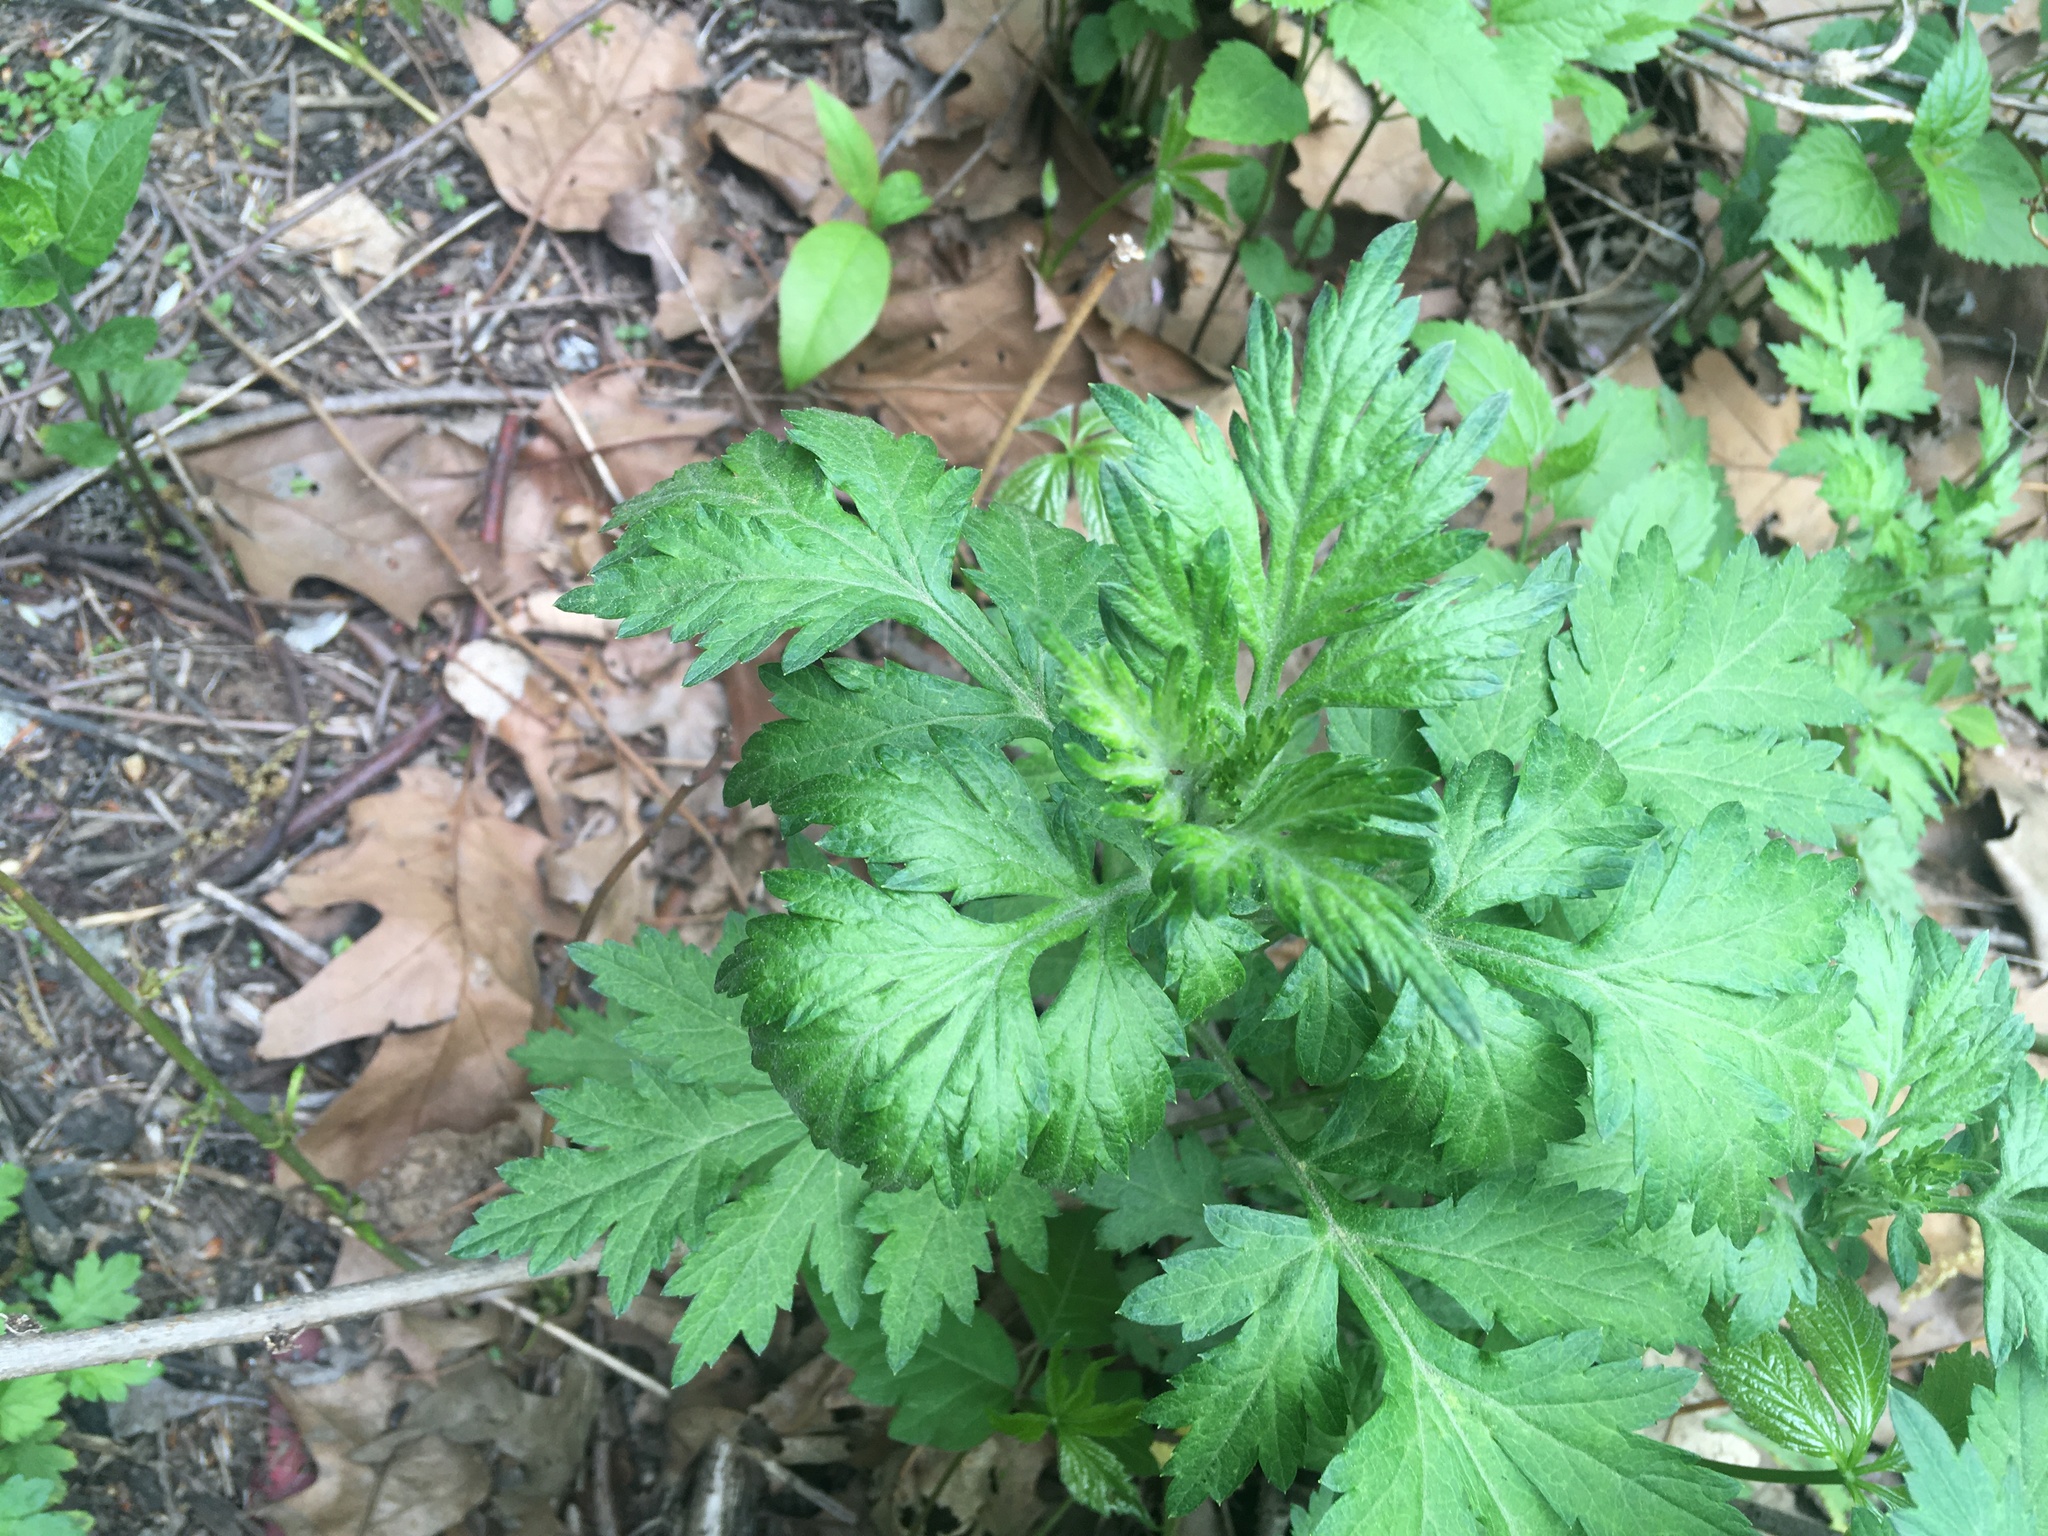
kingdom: Plantae
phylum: Tracheophyta
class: Magnoliopsida
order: Asterales
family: Asteraceae
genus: Artemisia
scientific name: Artemisia vulgaris
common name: Mugwort
